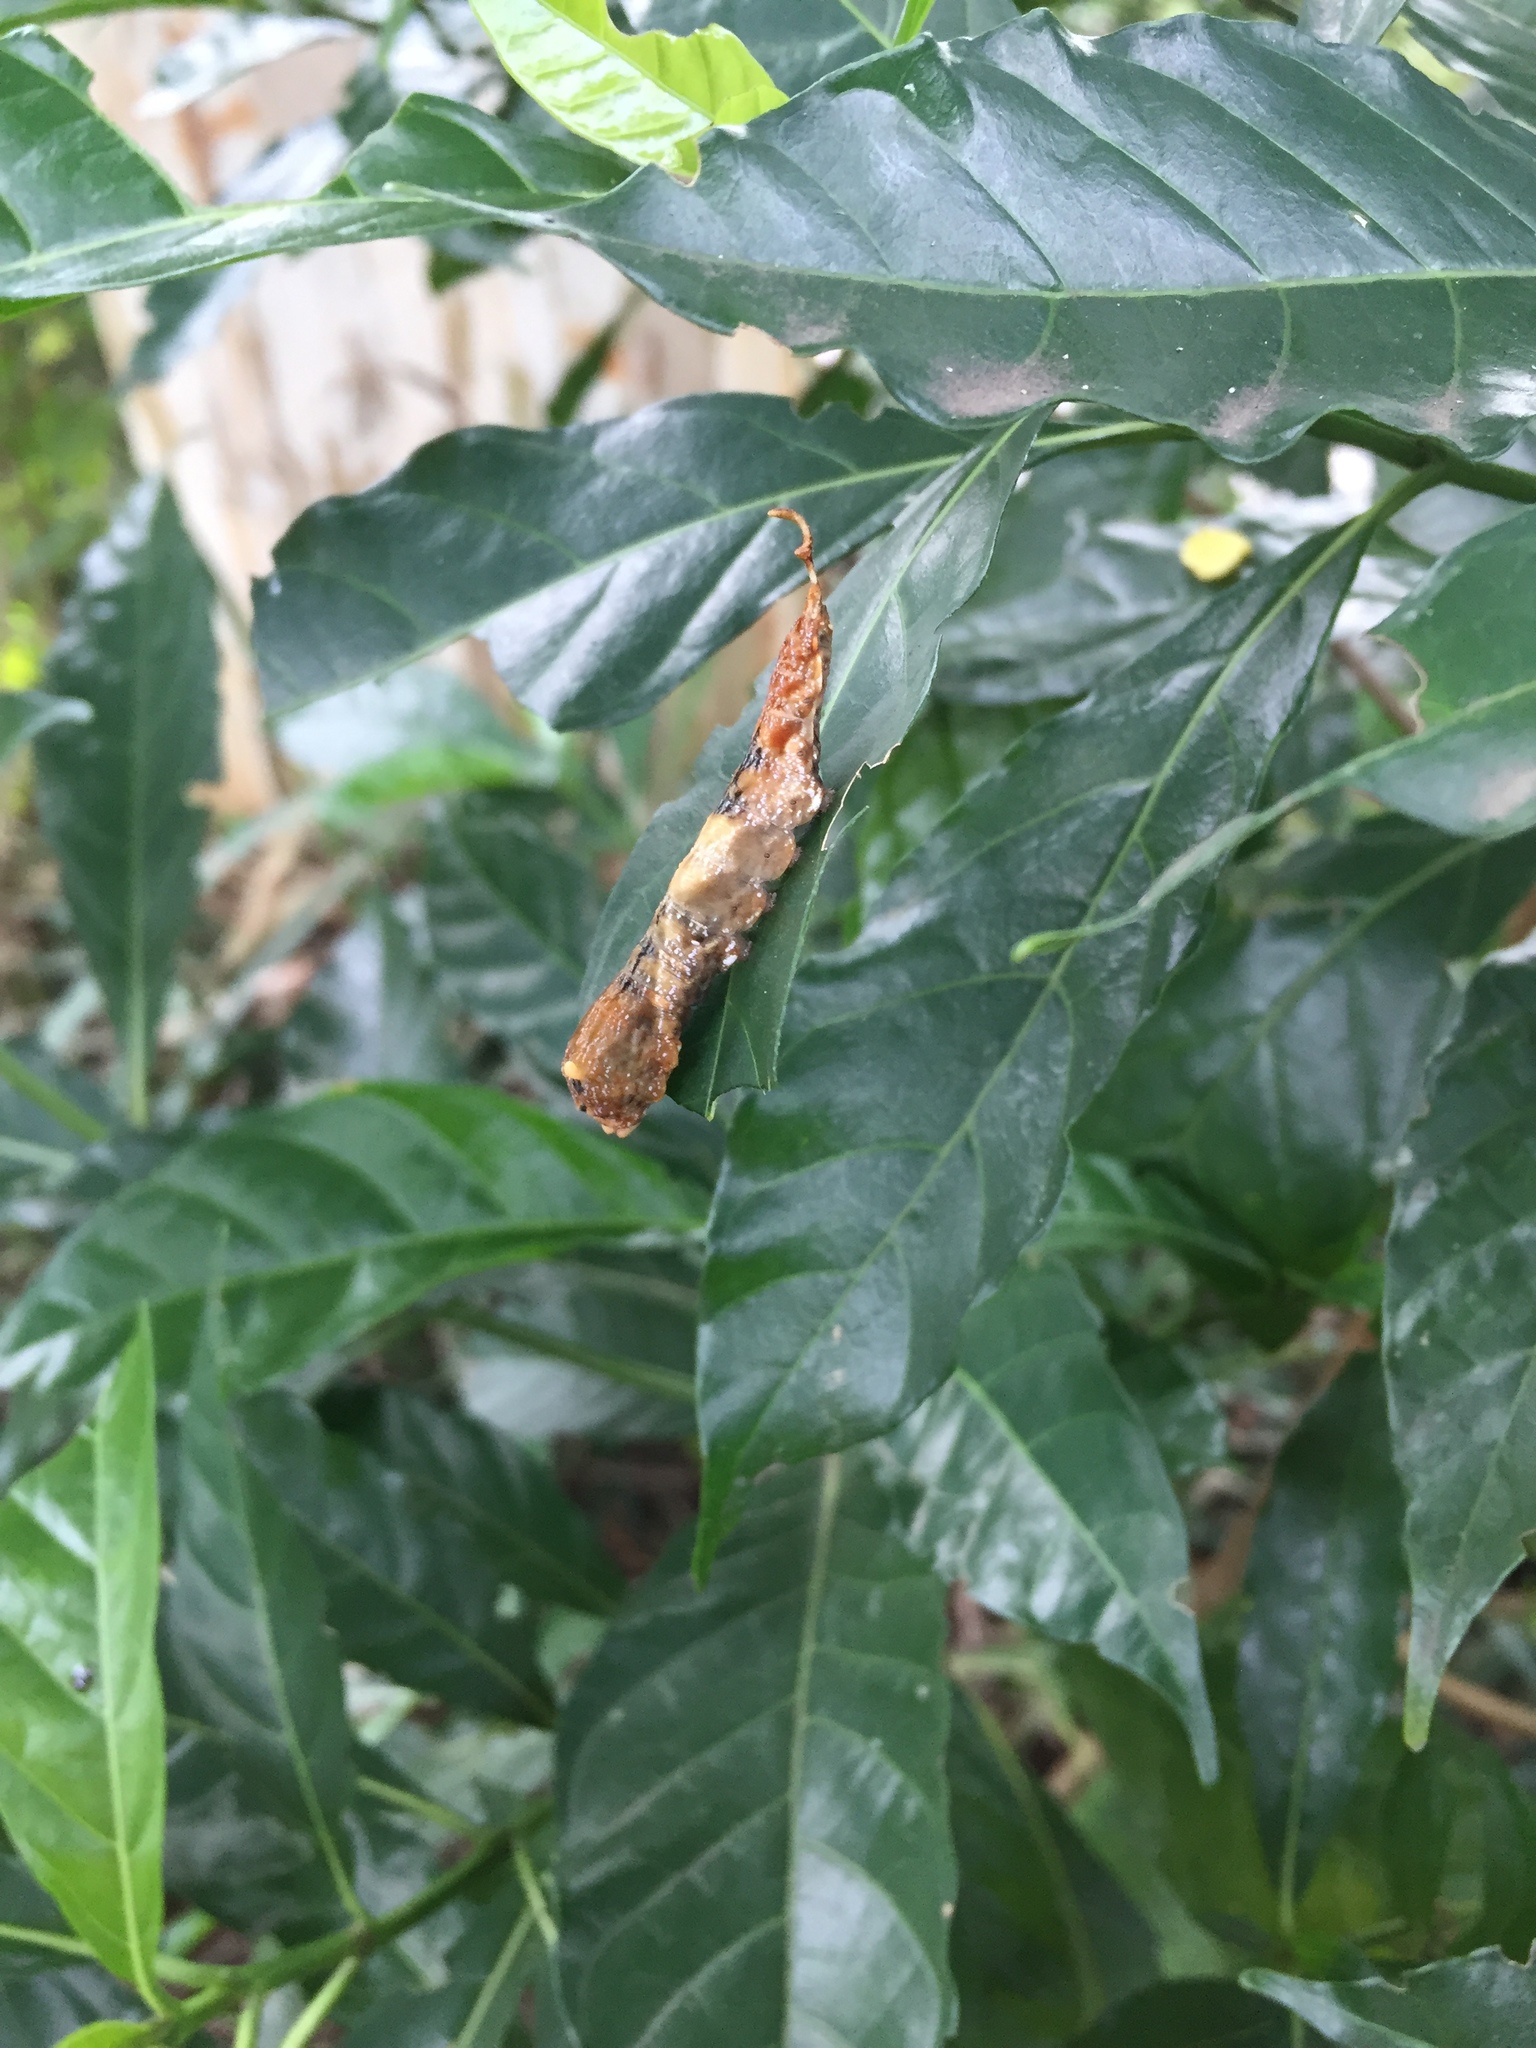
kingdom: Animalia
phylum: Arthropoda
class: Insecta
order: Lepidoptera
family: Drepanidae
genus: Negera
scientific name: Negera natalensis
